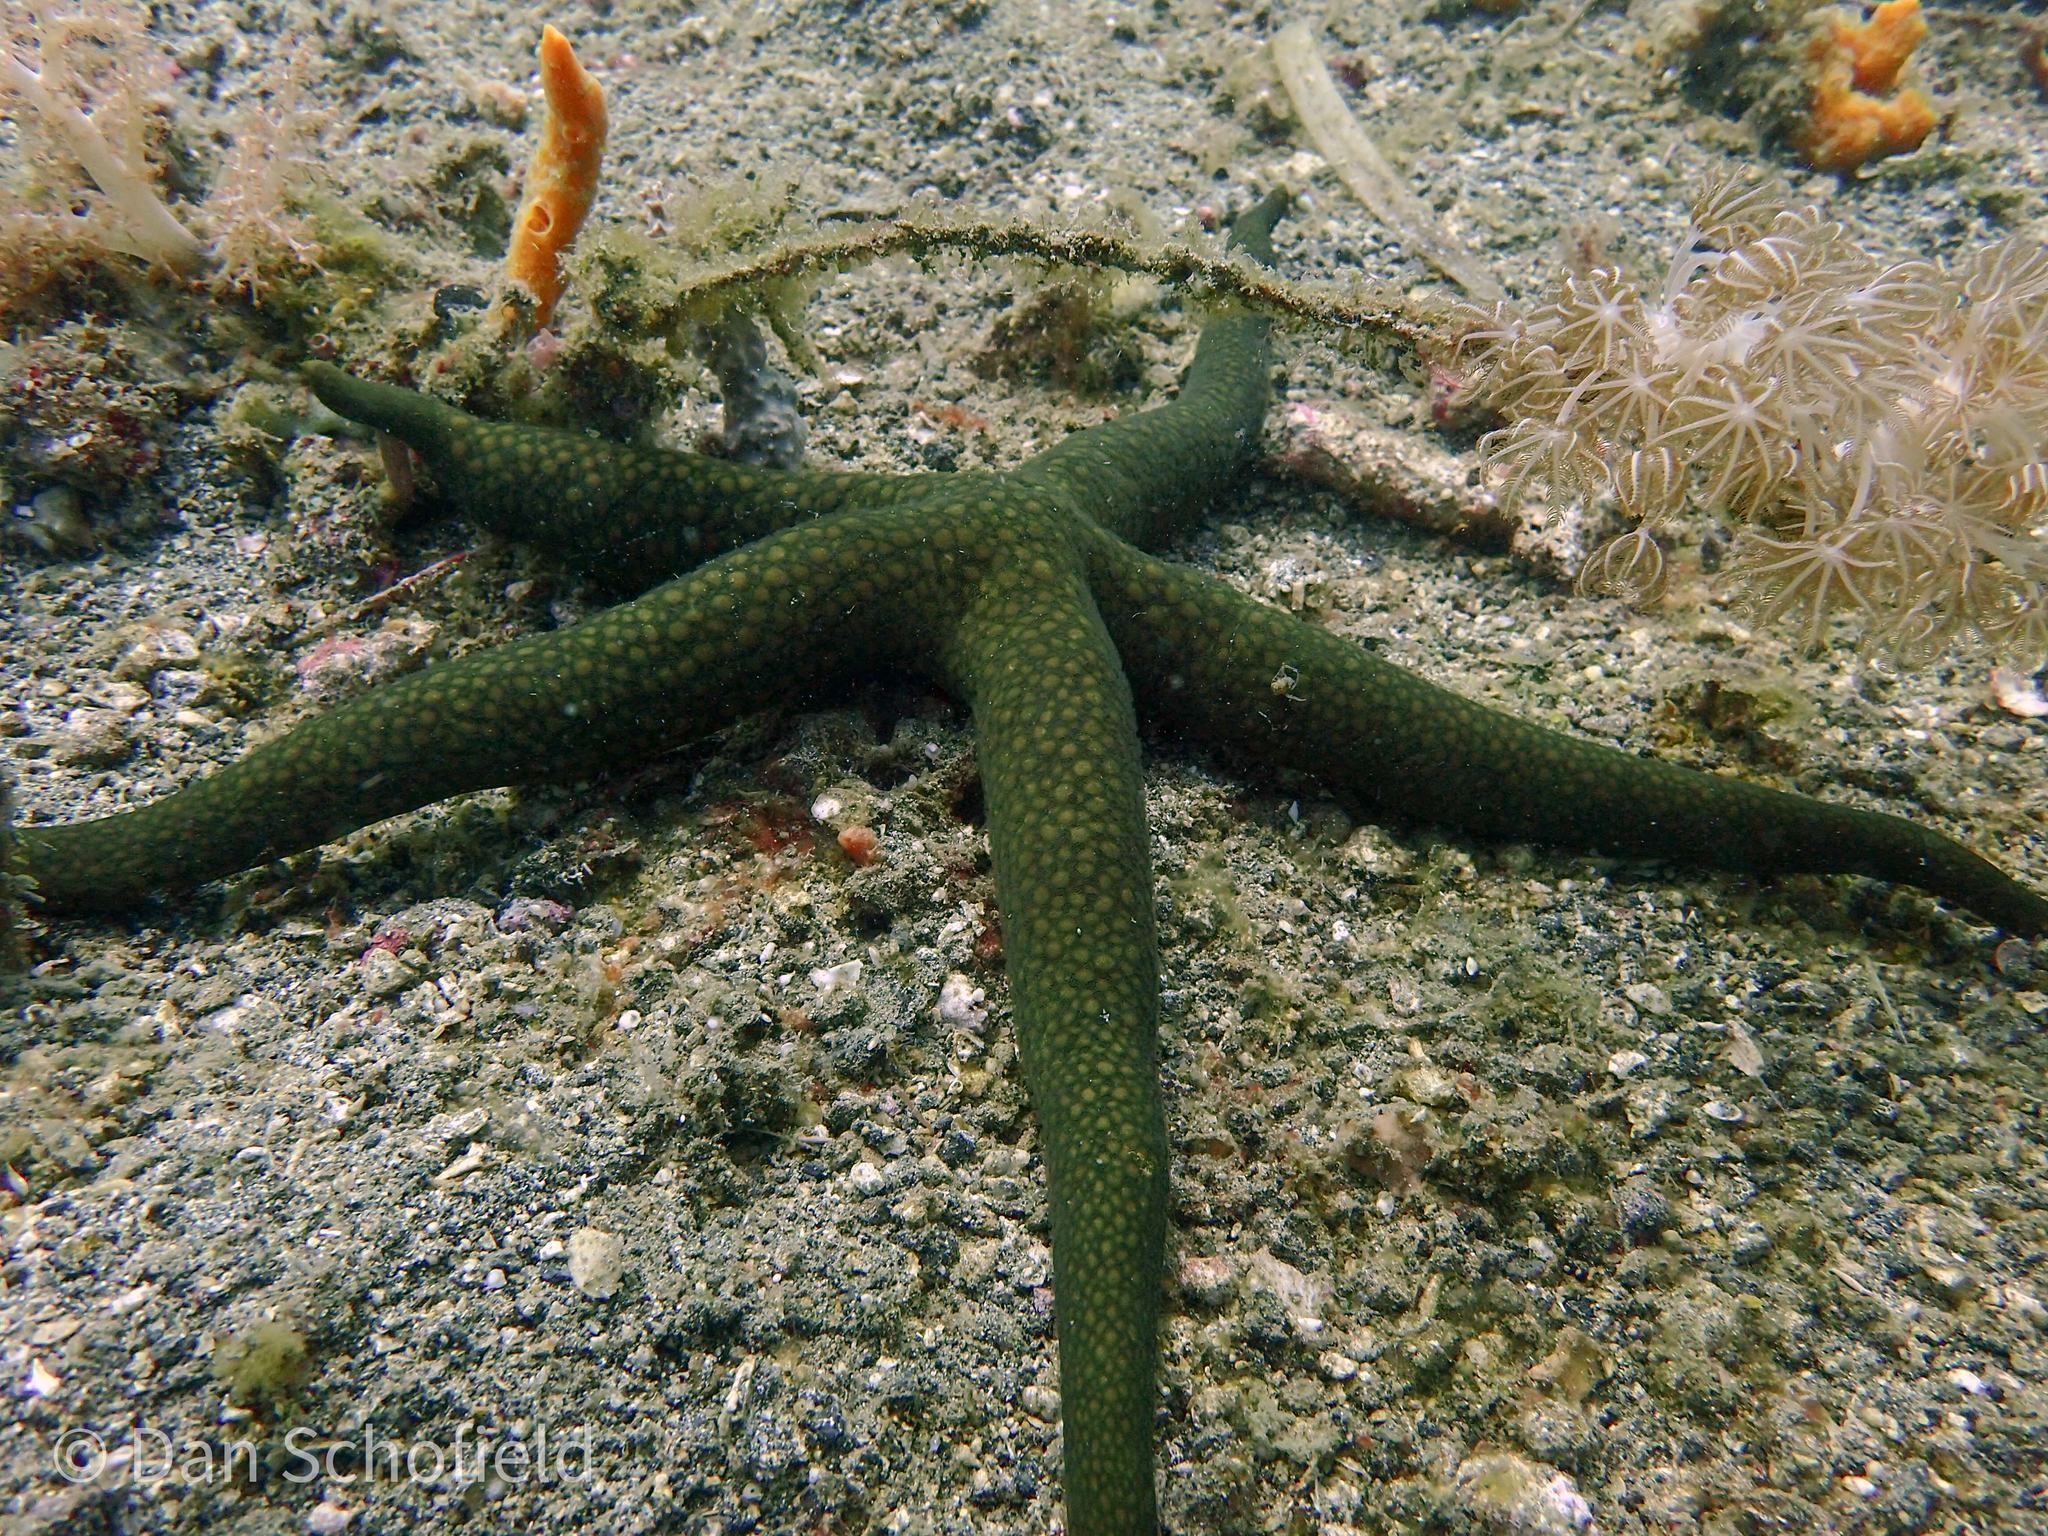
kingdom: Animalia
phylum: Cnidaria
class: Anthozoa
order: Actiniaria
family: Boloceroididae
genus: Boloceroides
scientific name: Boloceroides mcmurrichi
